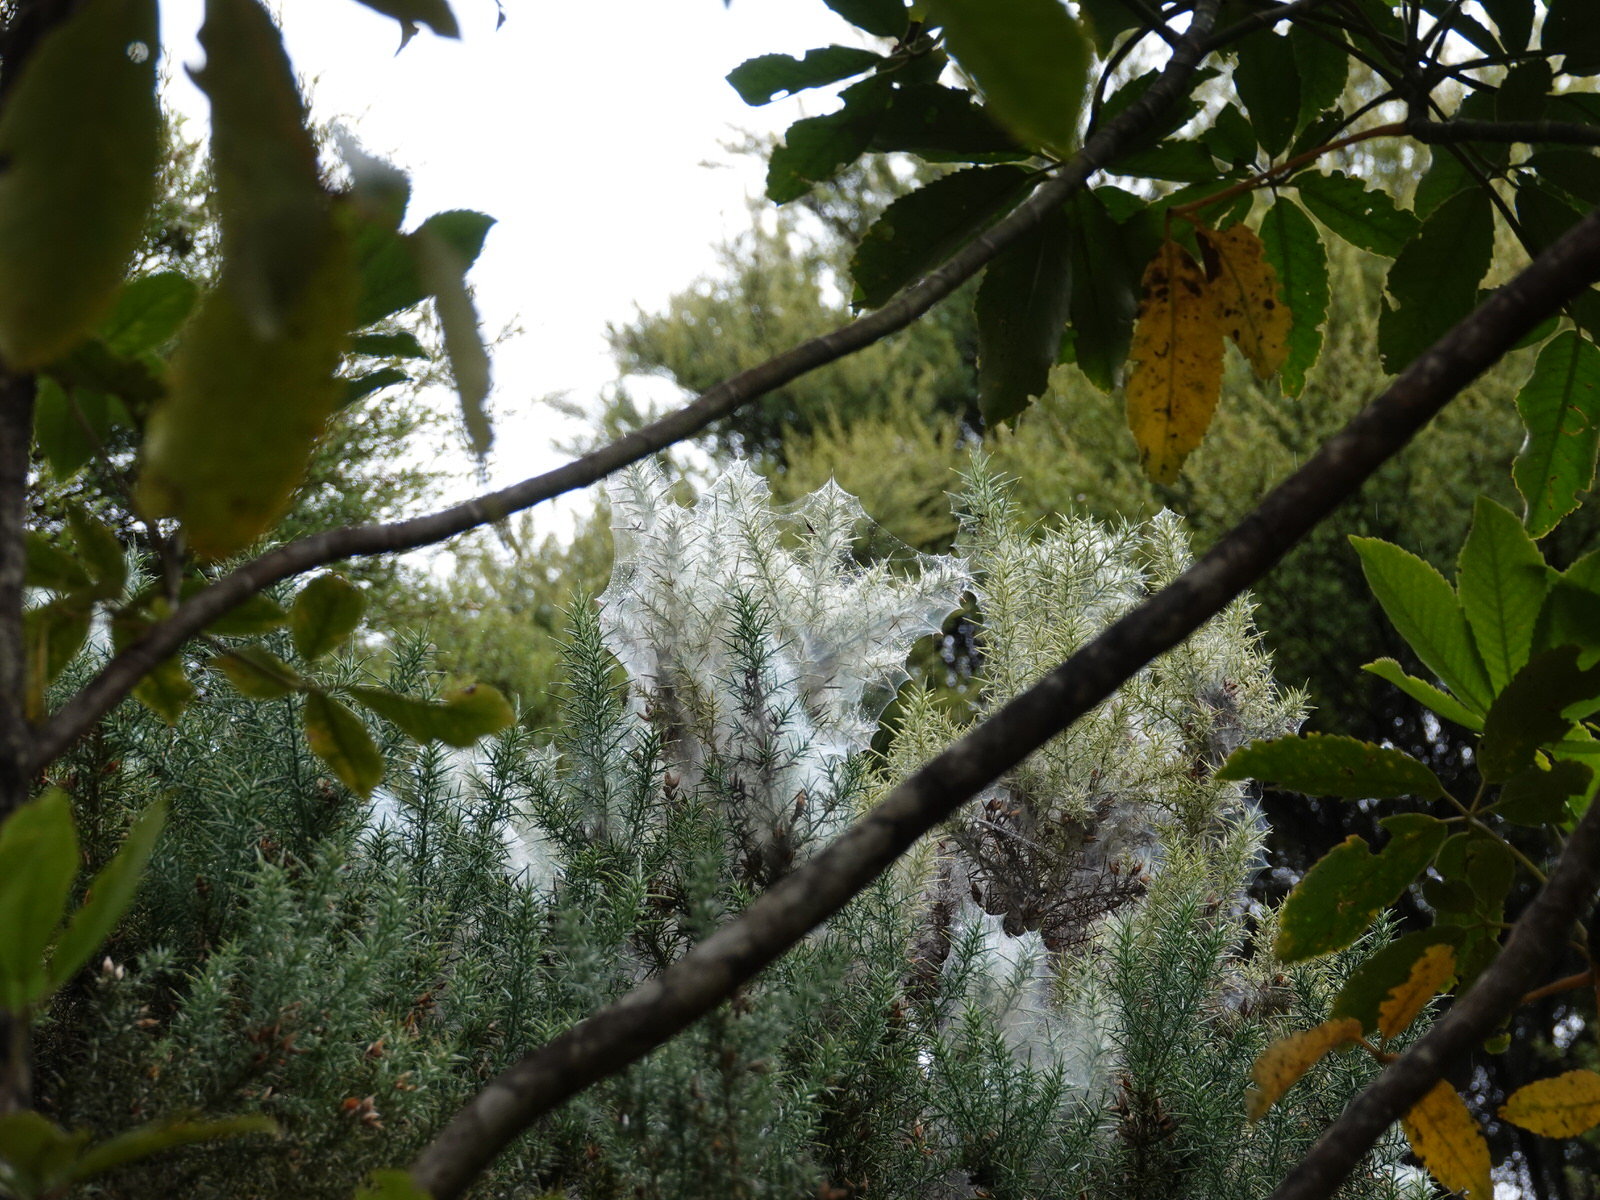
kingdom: Animalia
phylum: Arthropoda
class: Arachnida
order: Trombidiformes
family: Tetranychidae
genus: Tetranychus
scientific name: Tetranychus lintearius
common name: Gorse spider mite
